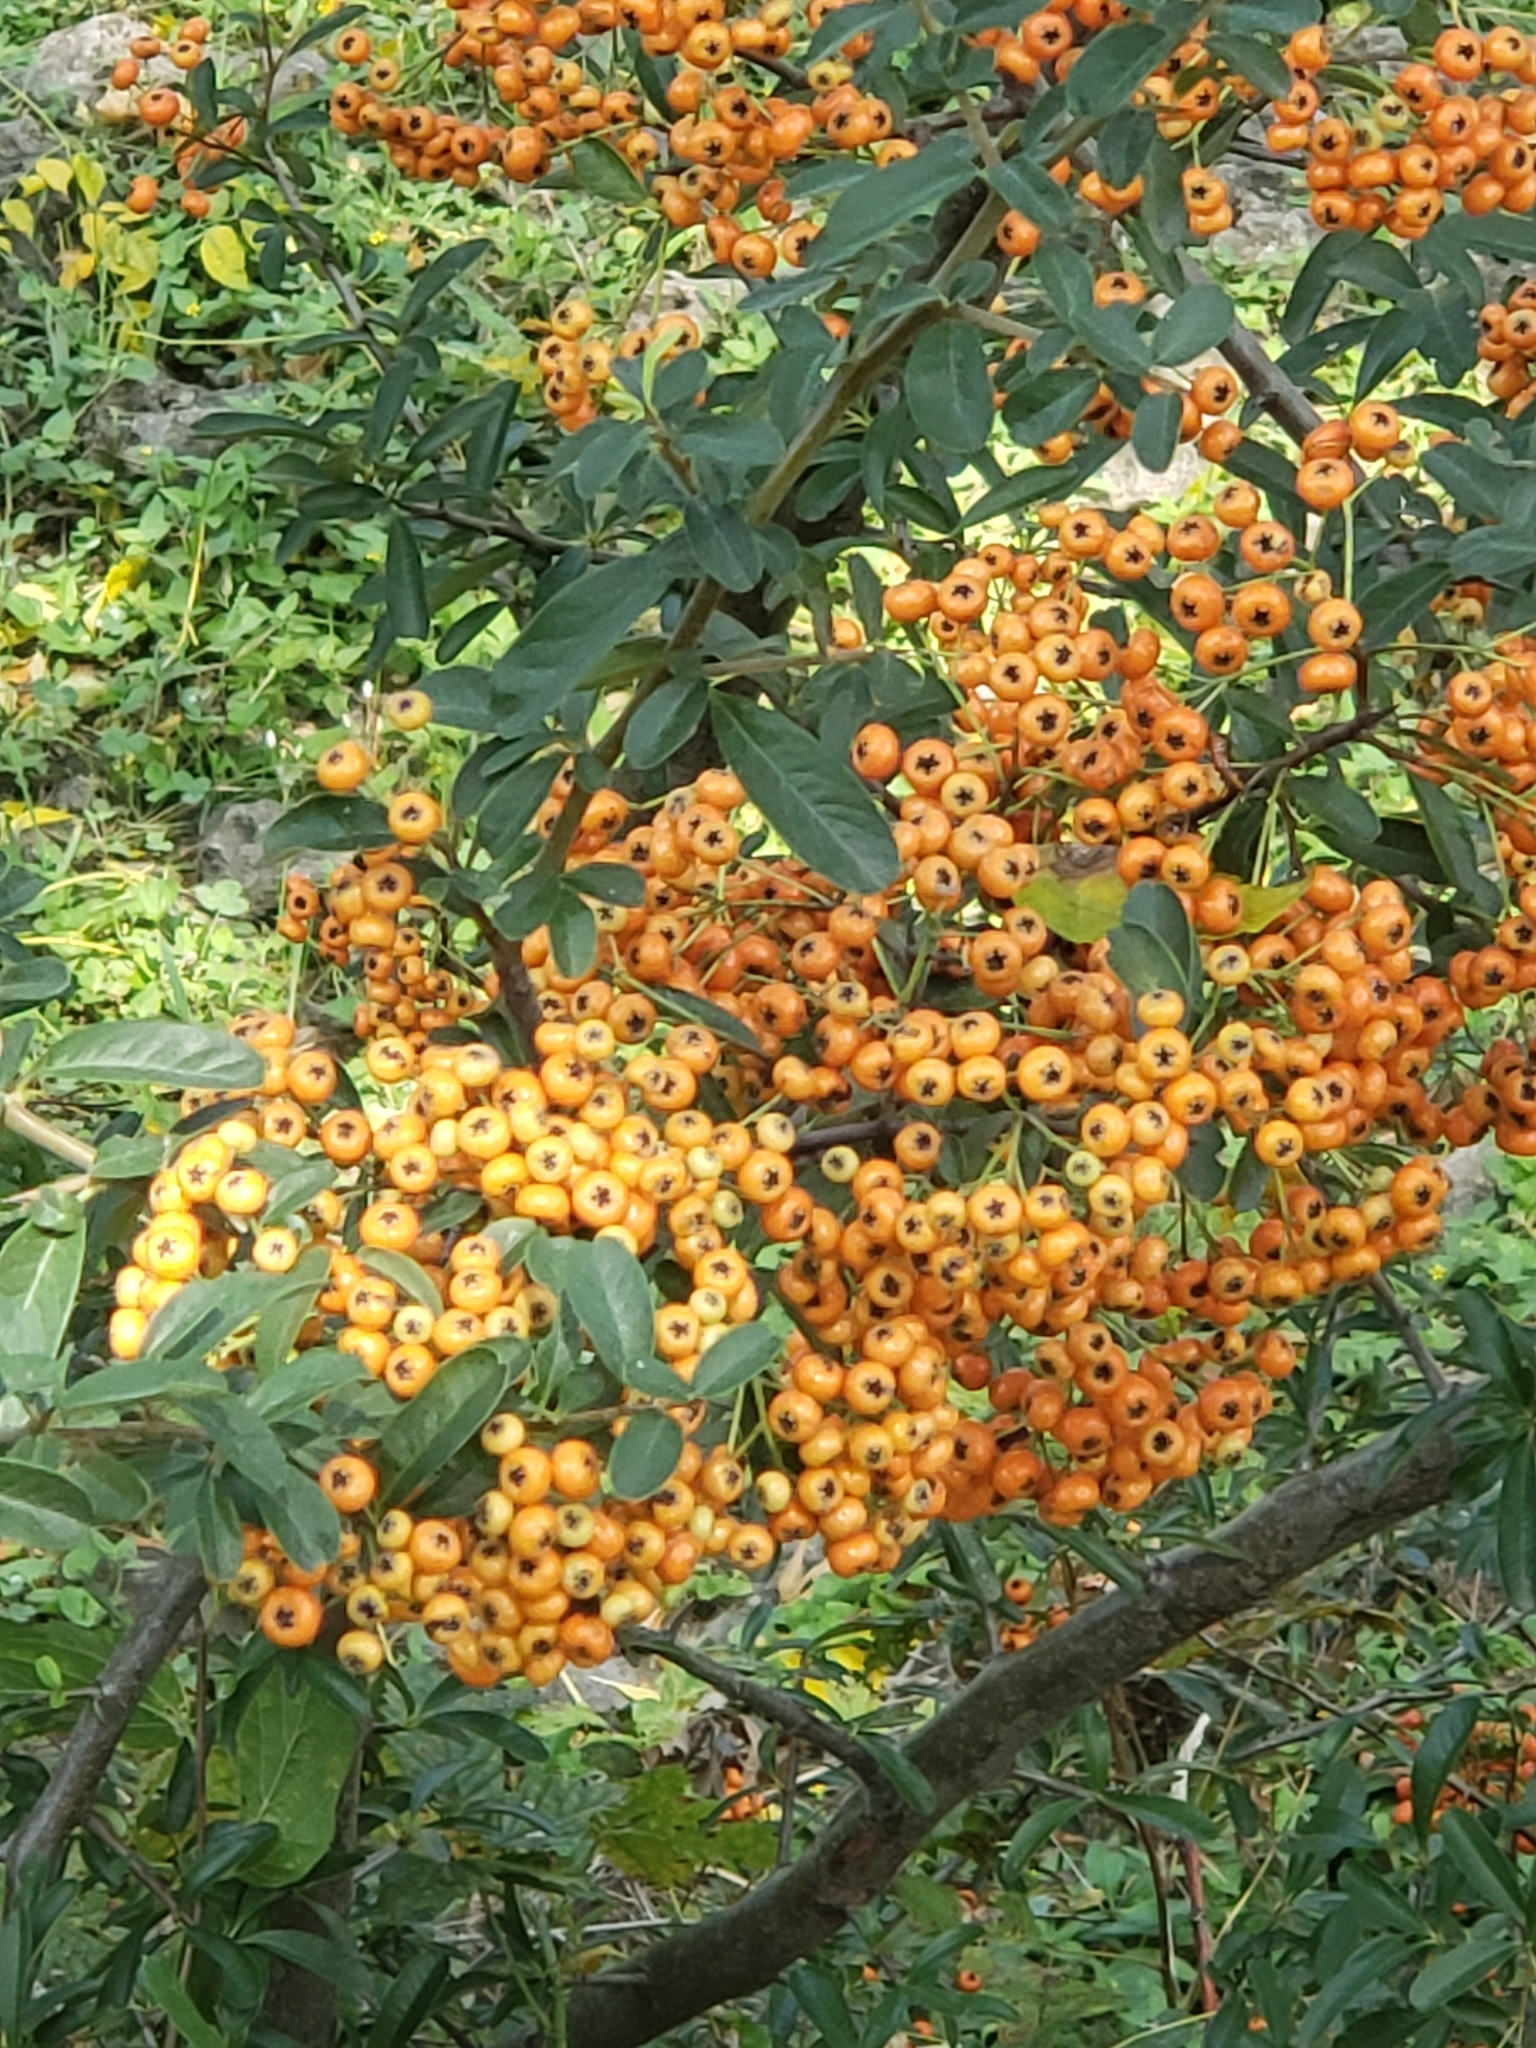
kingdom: Plantae
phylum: Tracheophyta
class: Magnoliopsida
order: Rosales
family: Rosaceae
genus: Pyracantha
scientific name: Pyracantha coccinea
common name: Firethorn
